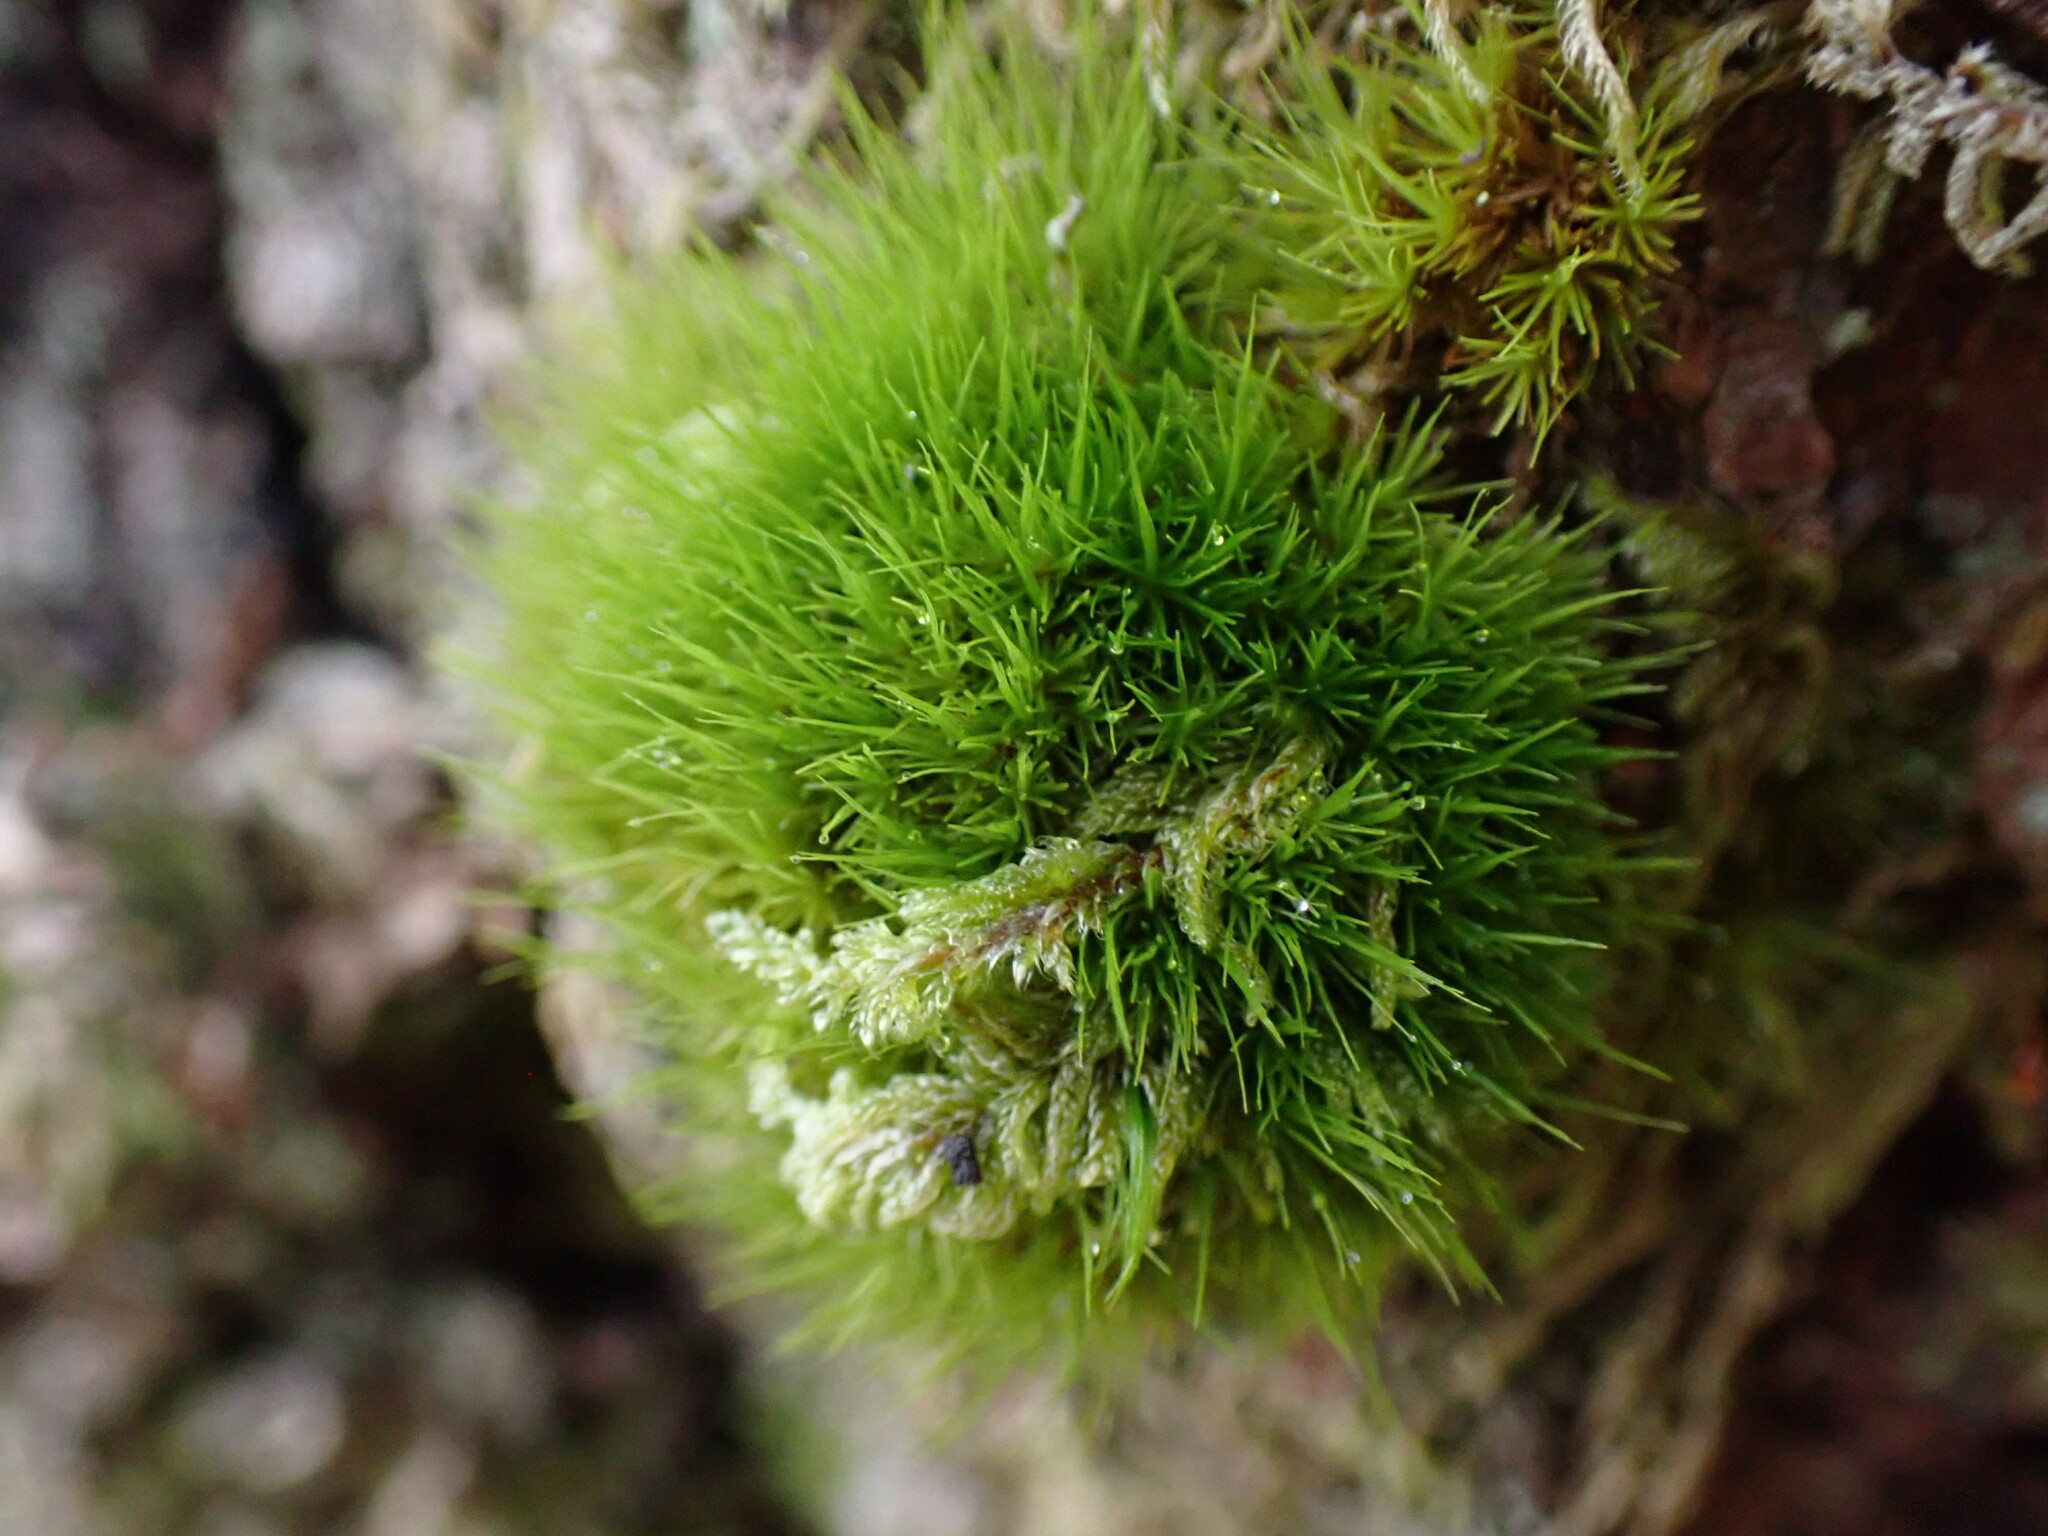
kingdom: Plantae
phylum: Bryophyta
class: Bryopsida
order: Dicranales
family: Dicranaceae
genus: Orthodicranum
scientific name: Orthodicranum tauricum
